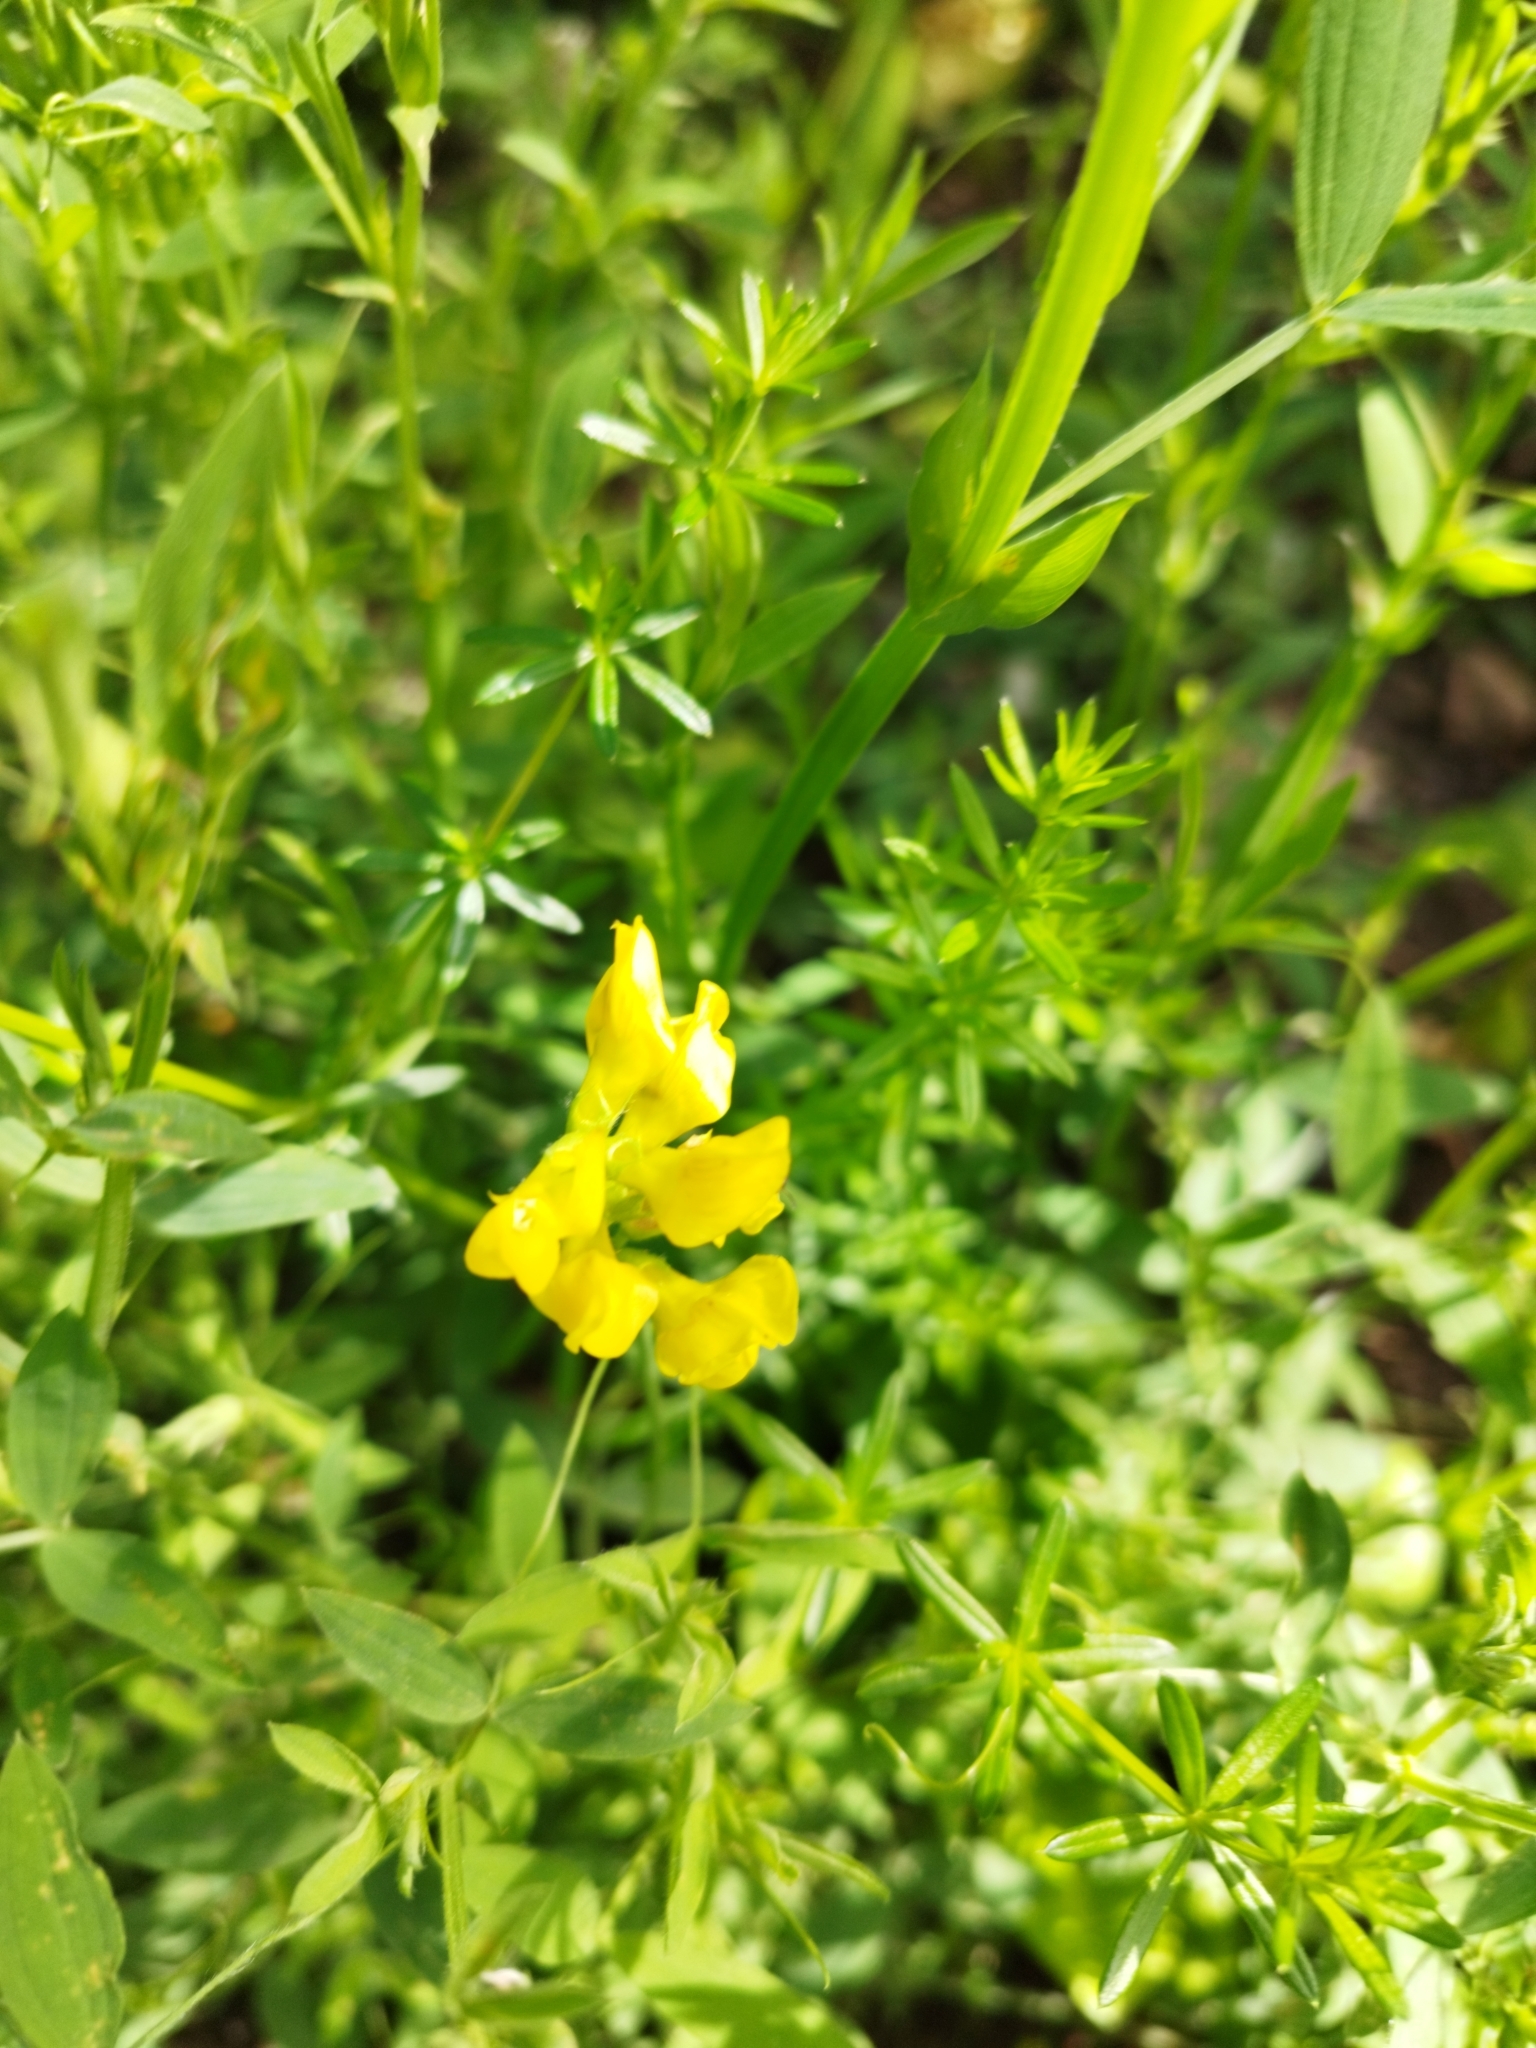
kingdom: Plantae
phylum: Tracheophyta
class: Magnoliopsida
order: Fabales
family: Fabaceae
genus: Lathyrus
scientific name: Lathyrus pratensis
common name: Meadow vetchling
